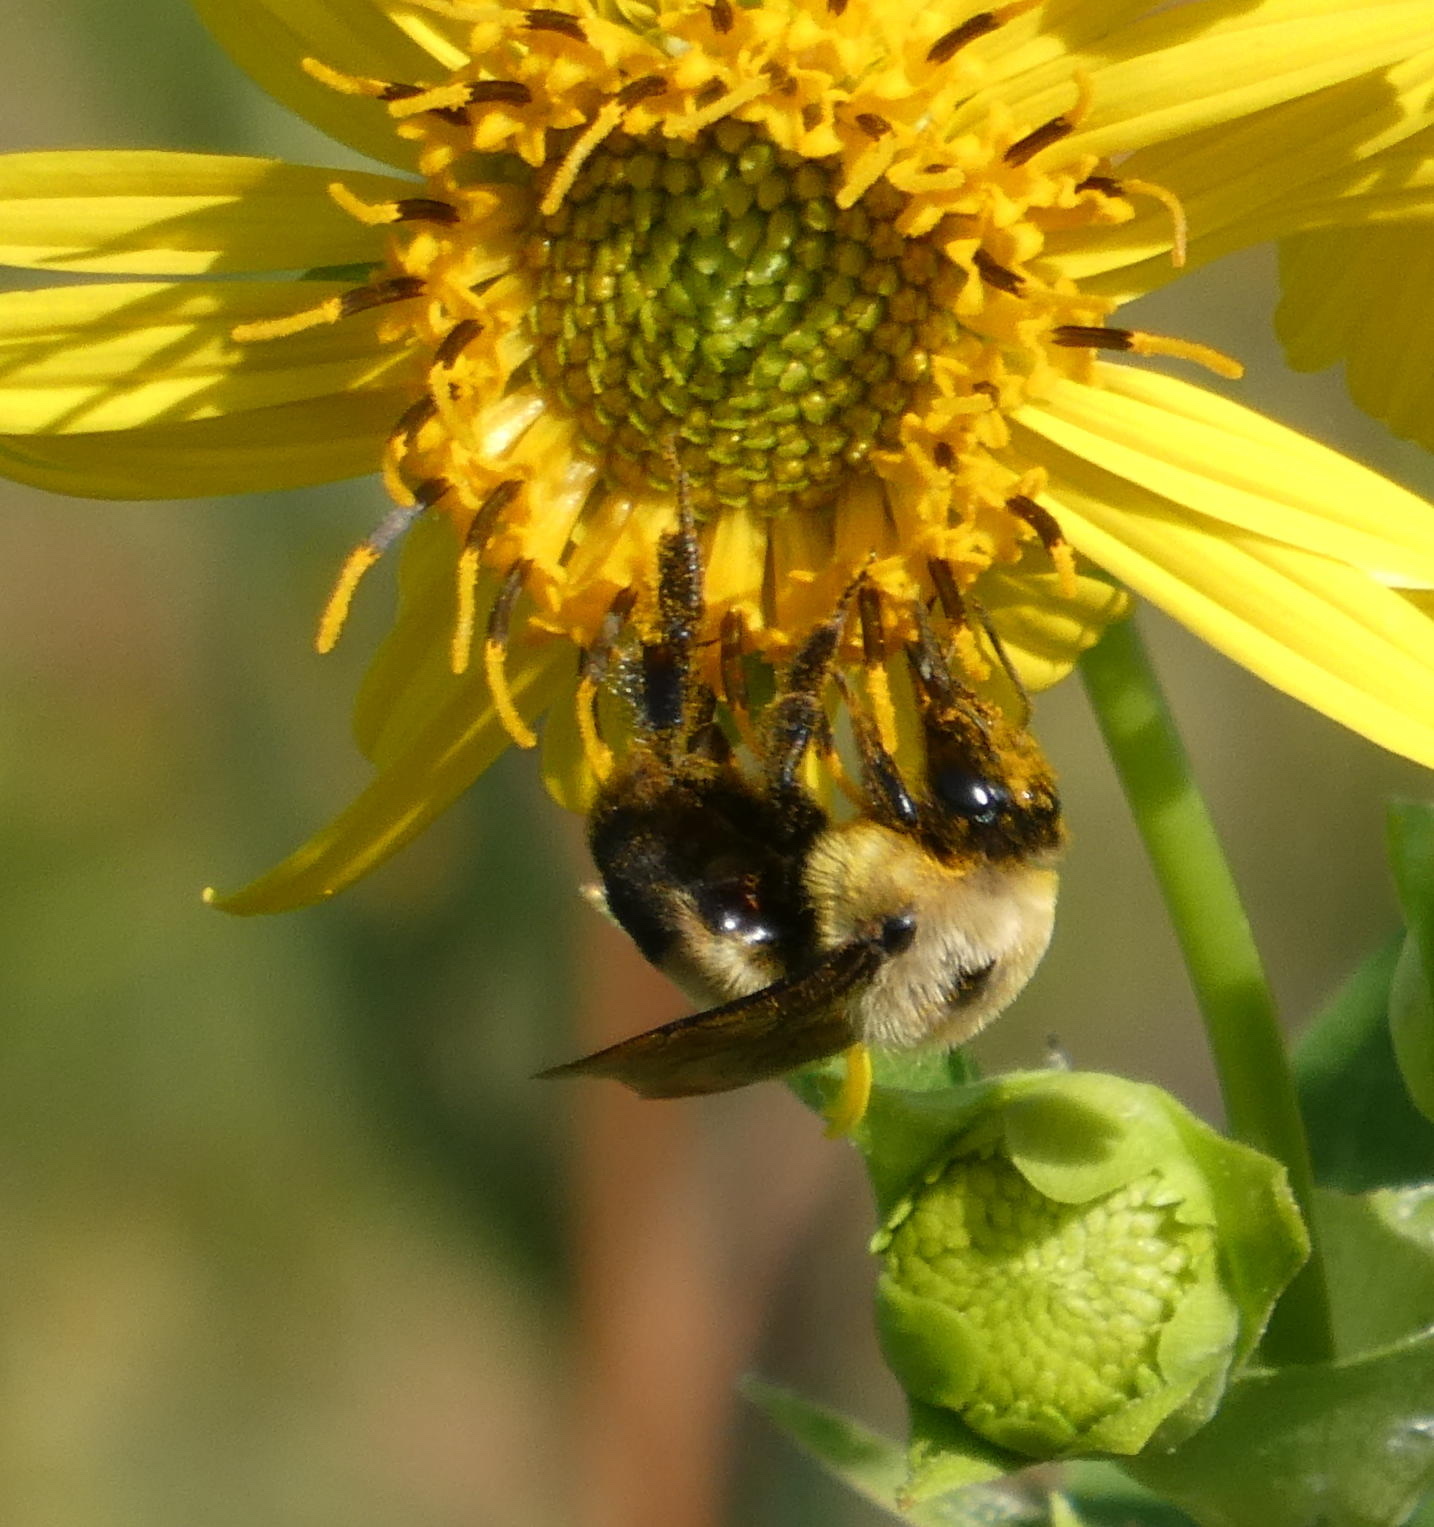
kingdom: Animalia
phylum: Arthropoda
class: Insecta
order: Hymenoptera
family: Apidae
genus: Bombus
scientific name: Bombus griseocollis
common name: Brown-belted bumble bee
